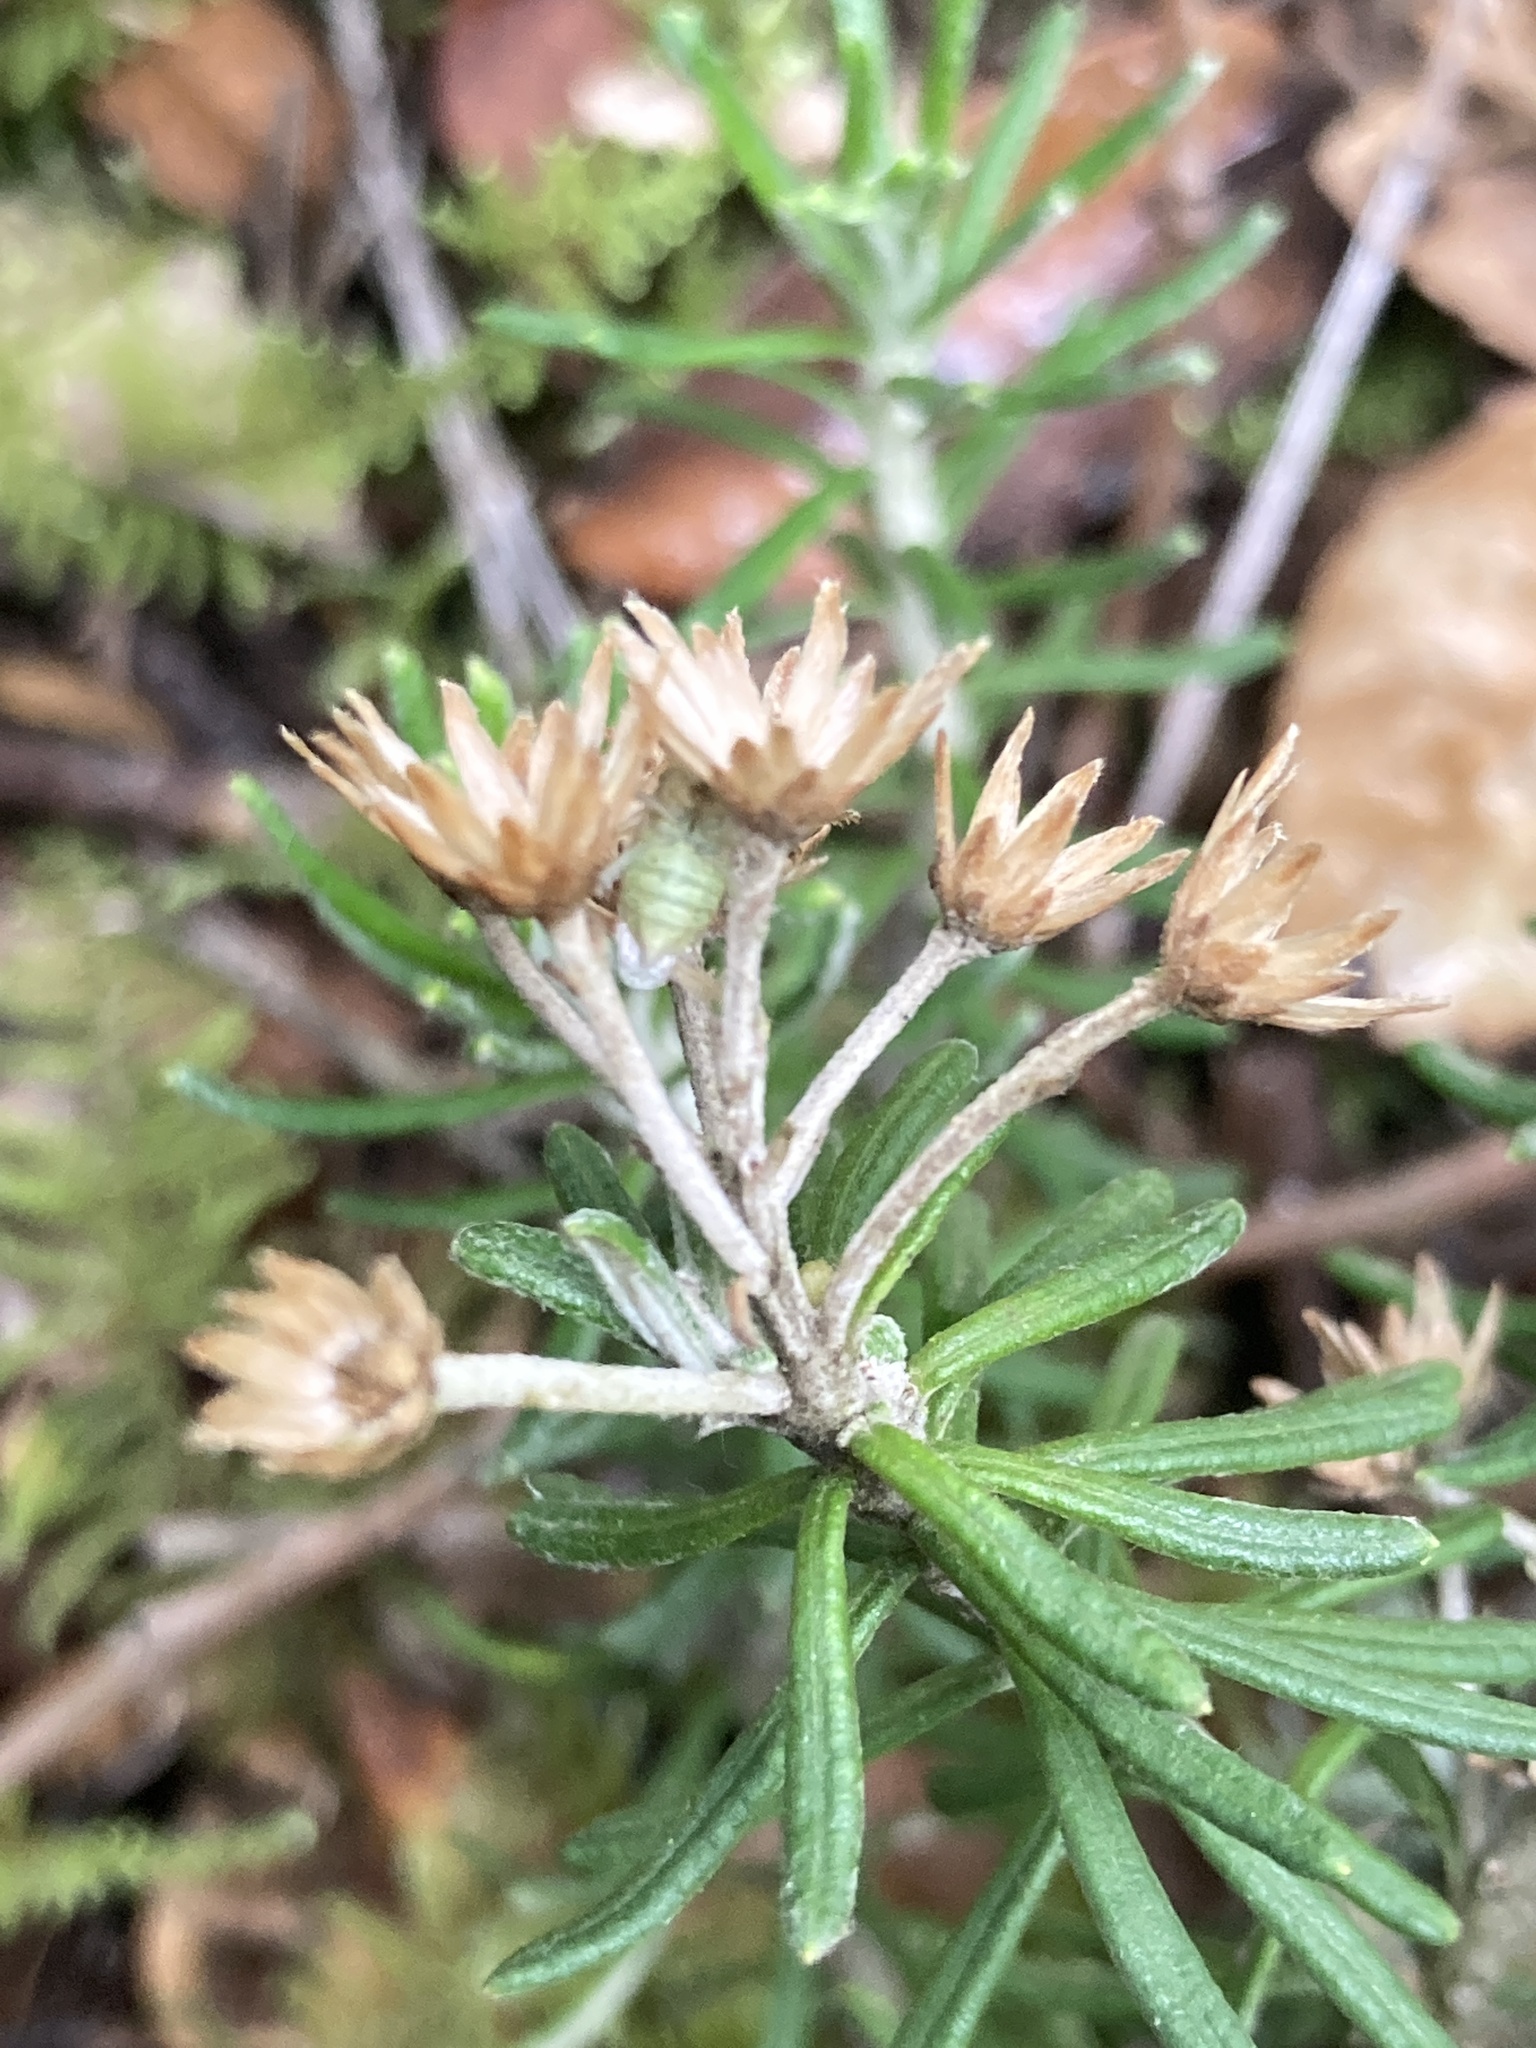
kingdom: Plantae
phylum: Tracheophyta
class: Magnoliopsida
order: Asterales
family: Asteraceae
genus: Linochilus
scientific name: Linochilus rosmarinifolius
